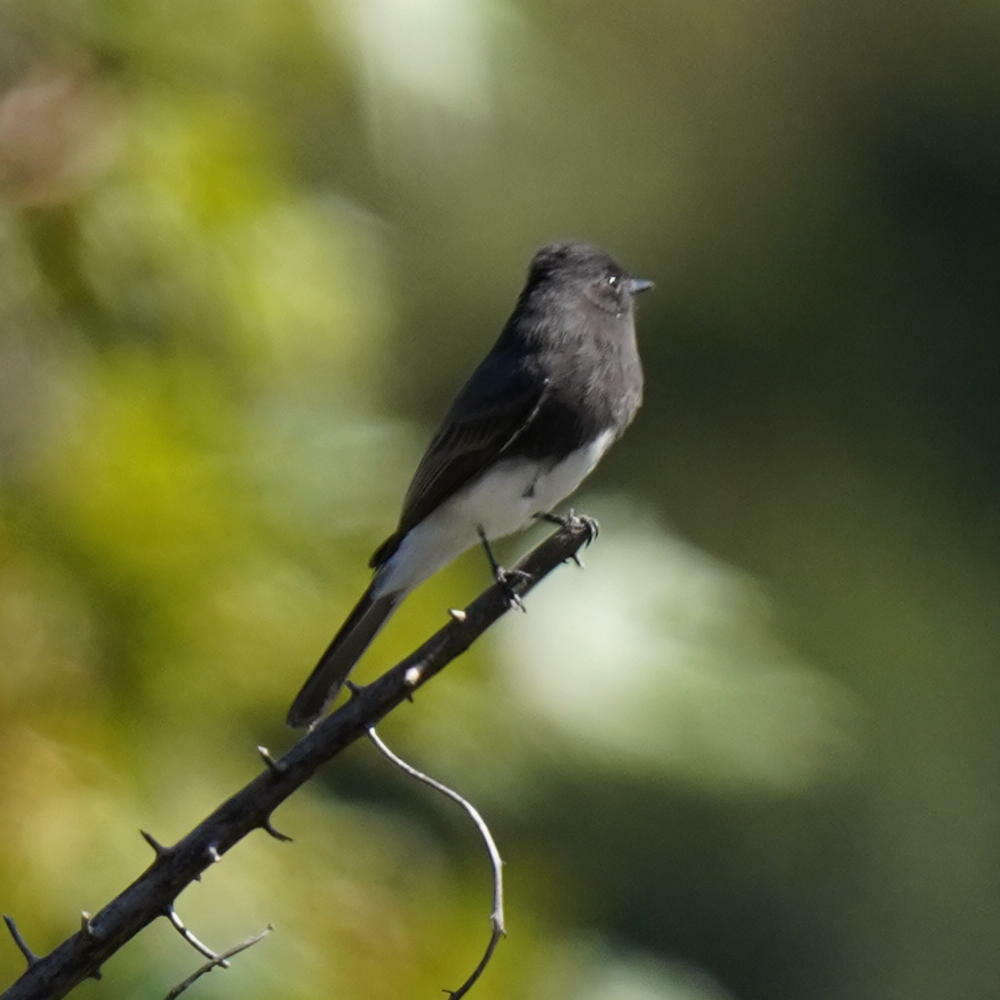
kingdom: Animalia
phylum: Chordata
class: Aves
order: Passeriformes
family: Tyrannidae
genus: Sayornis
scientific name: Sayornis nigricans
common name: Black phoebe
